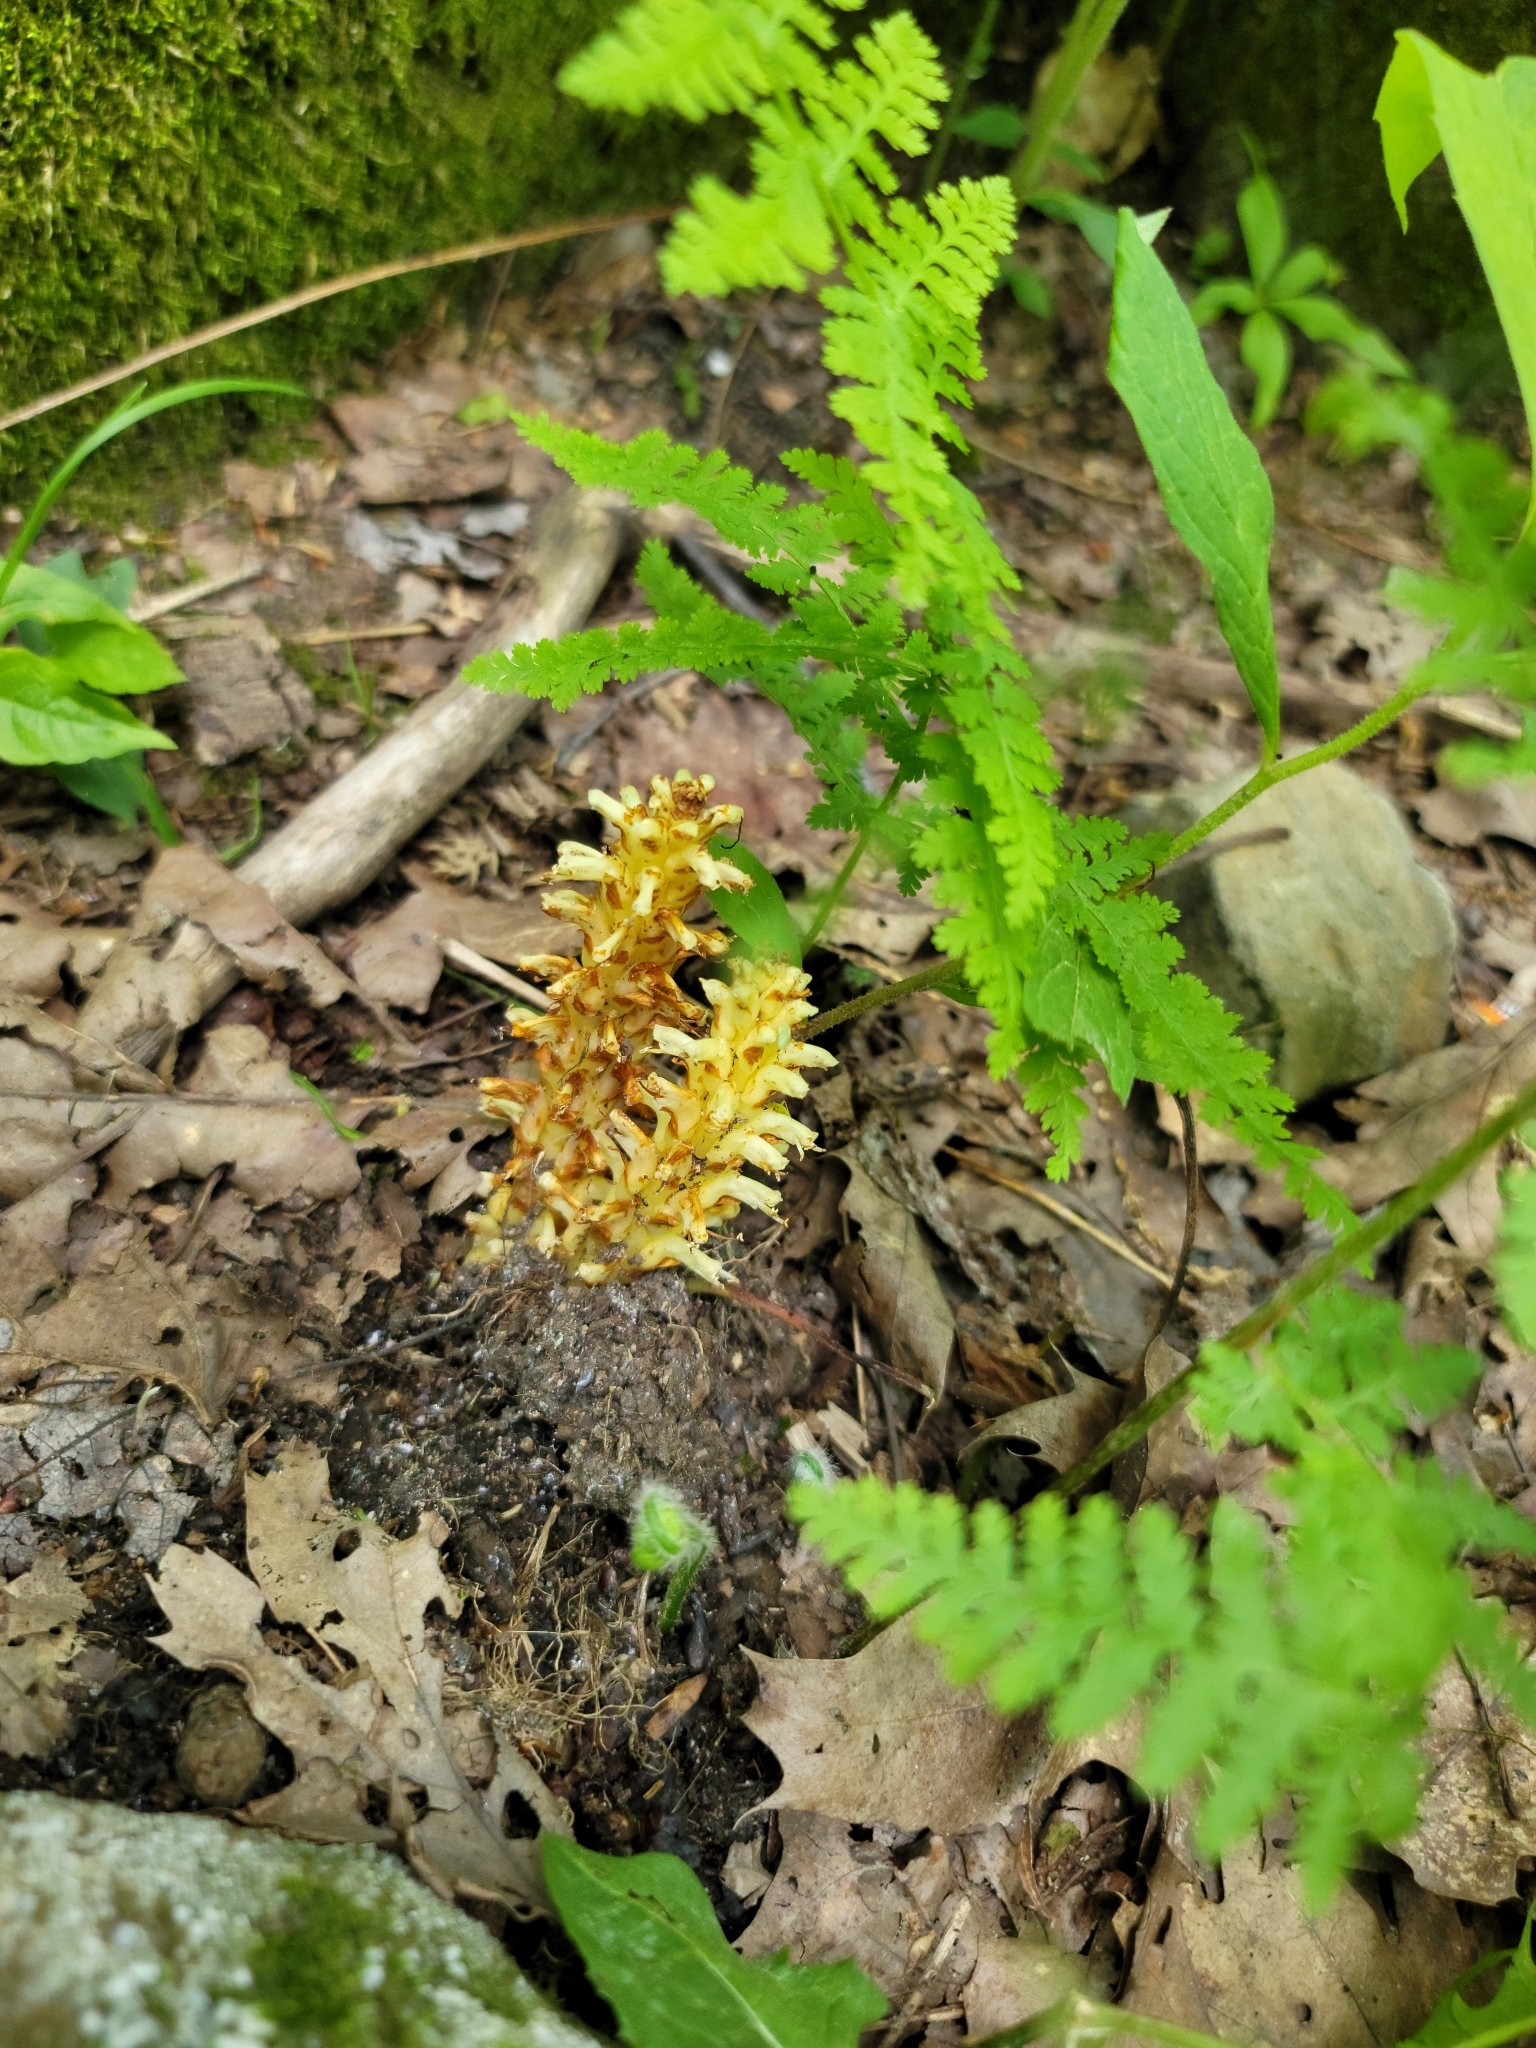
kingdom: Plantae
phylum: Tracheophyta
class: Magnoliopsida
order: Lamiales
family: Orobanchaceae
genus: Conopholis
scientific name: Conopholis americana
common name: American cancer-root
